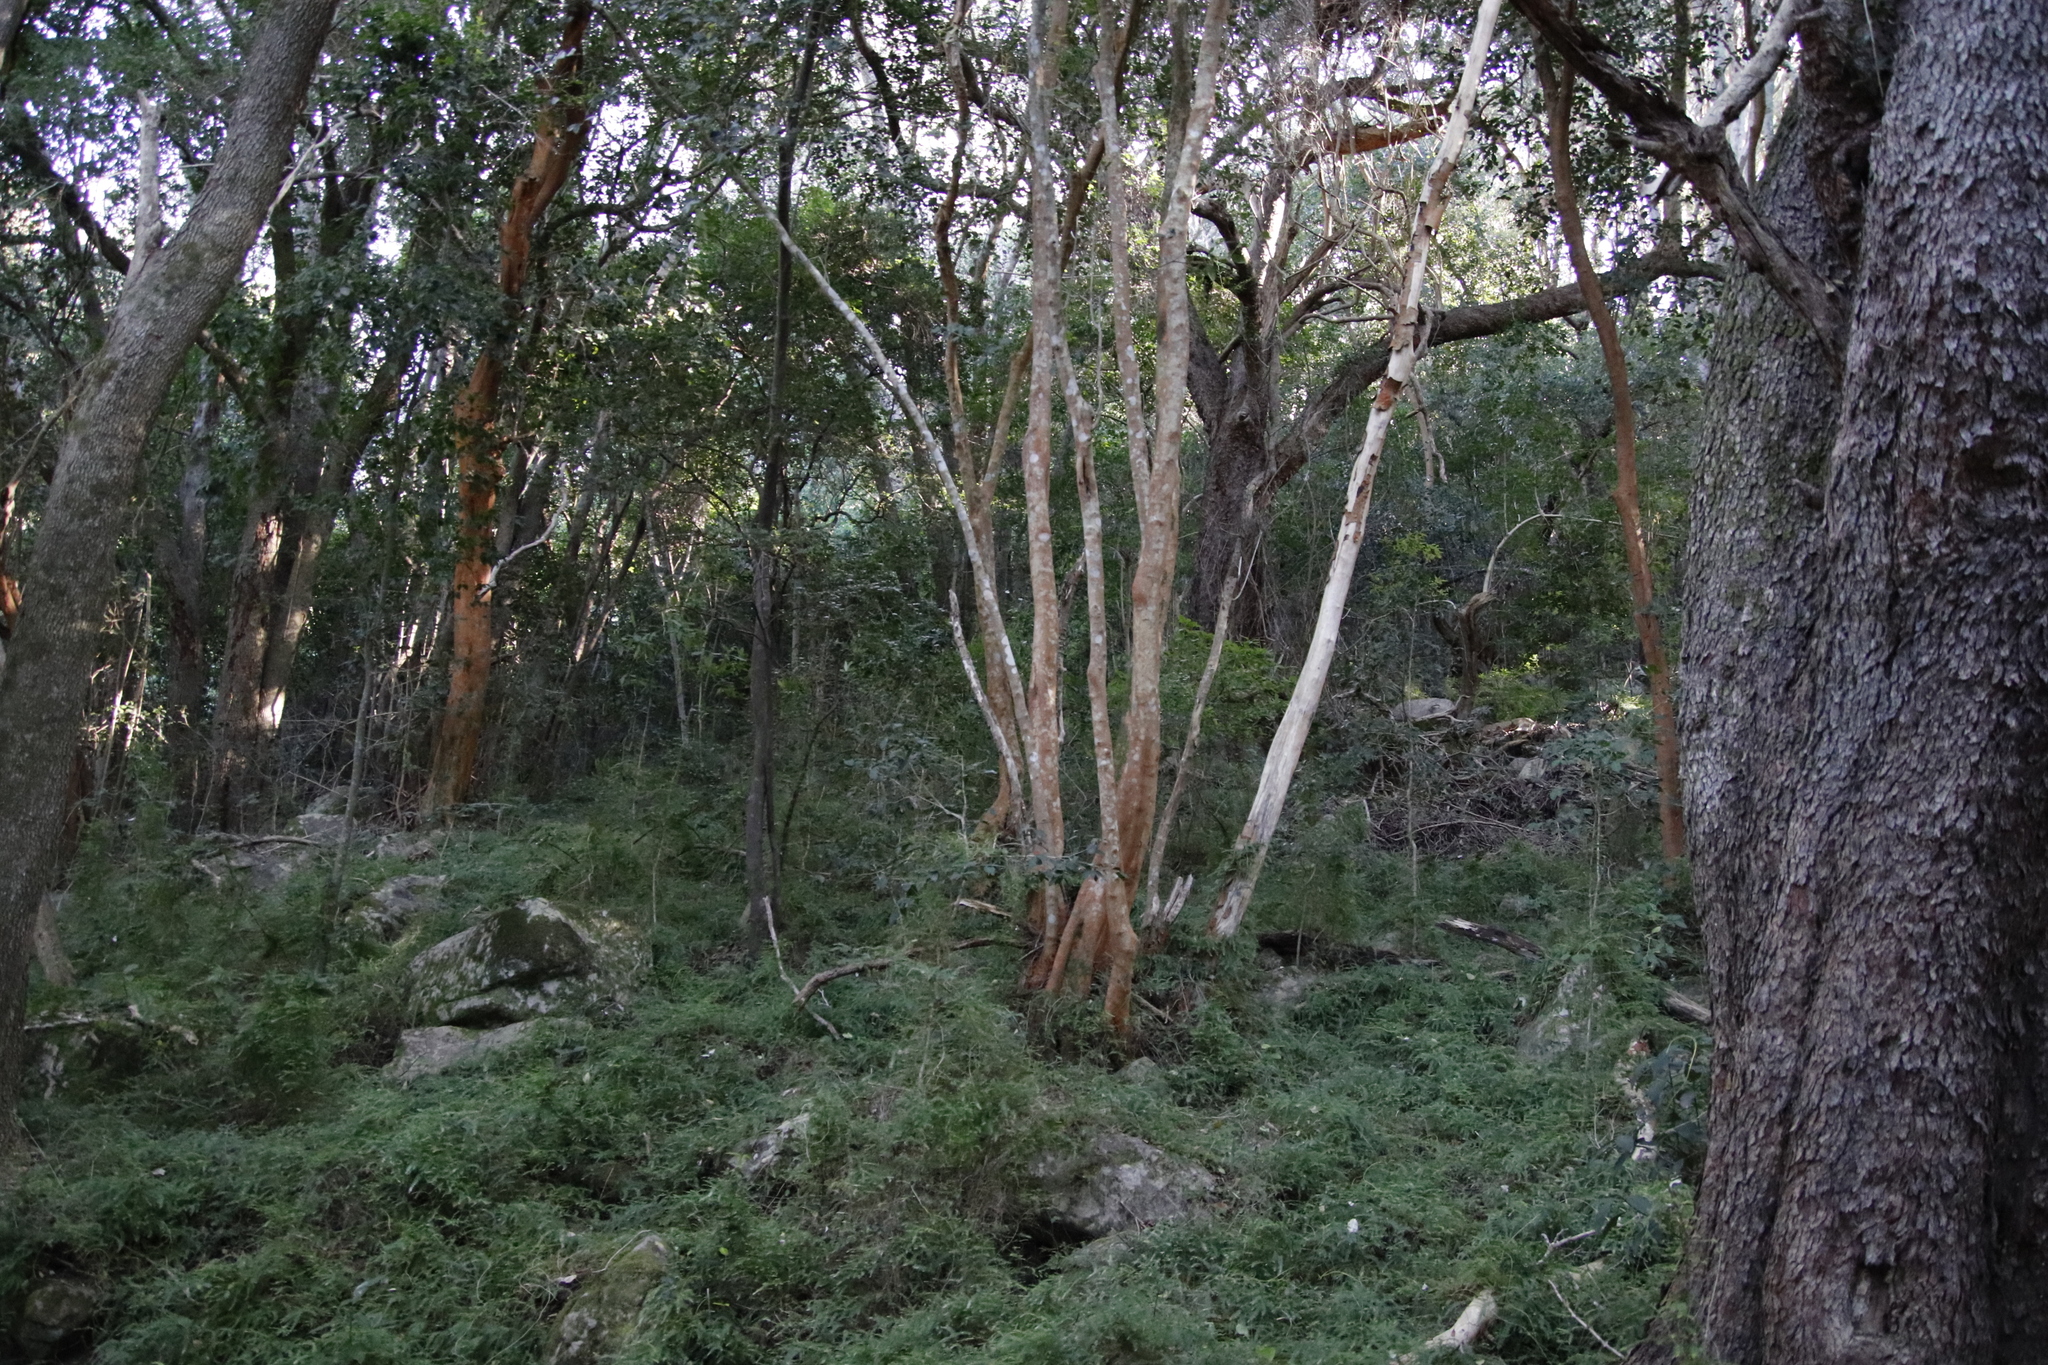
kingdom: Plantae
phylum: Tracheophyta
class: Liliopsida
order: Asparagales
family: Asparagaceae
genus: Asparagus
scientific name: Asparagus scandens
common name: Asparagus-fern
